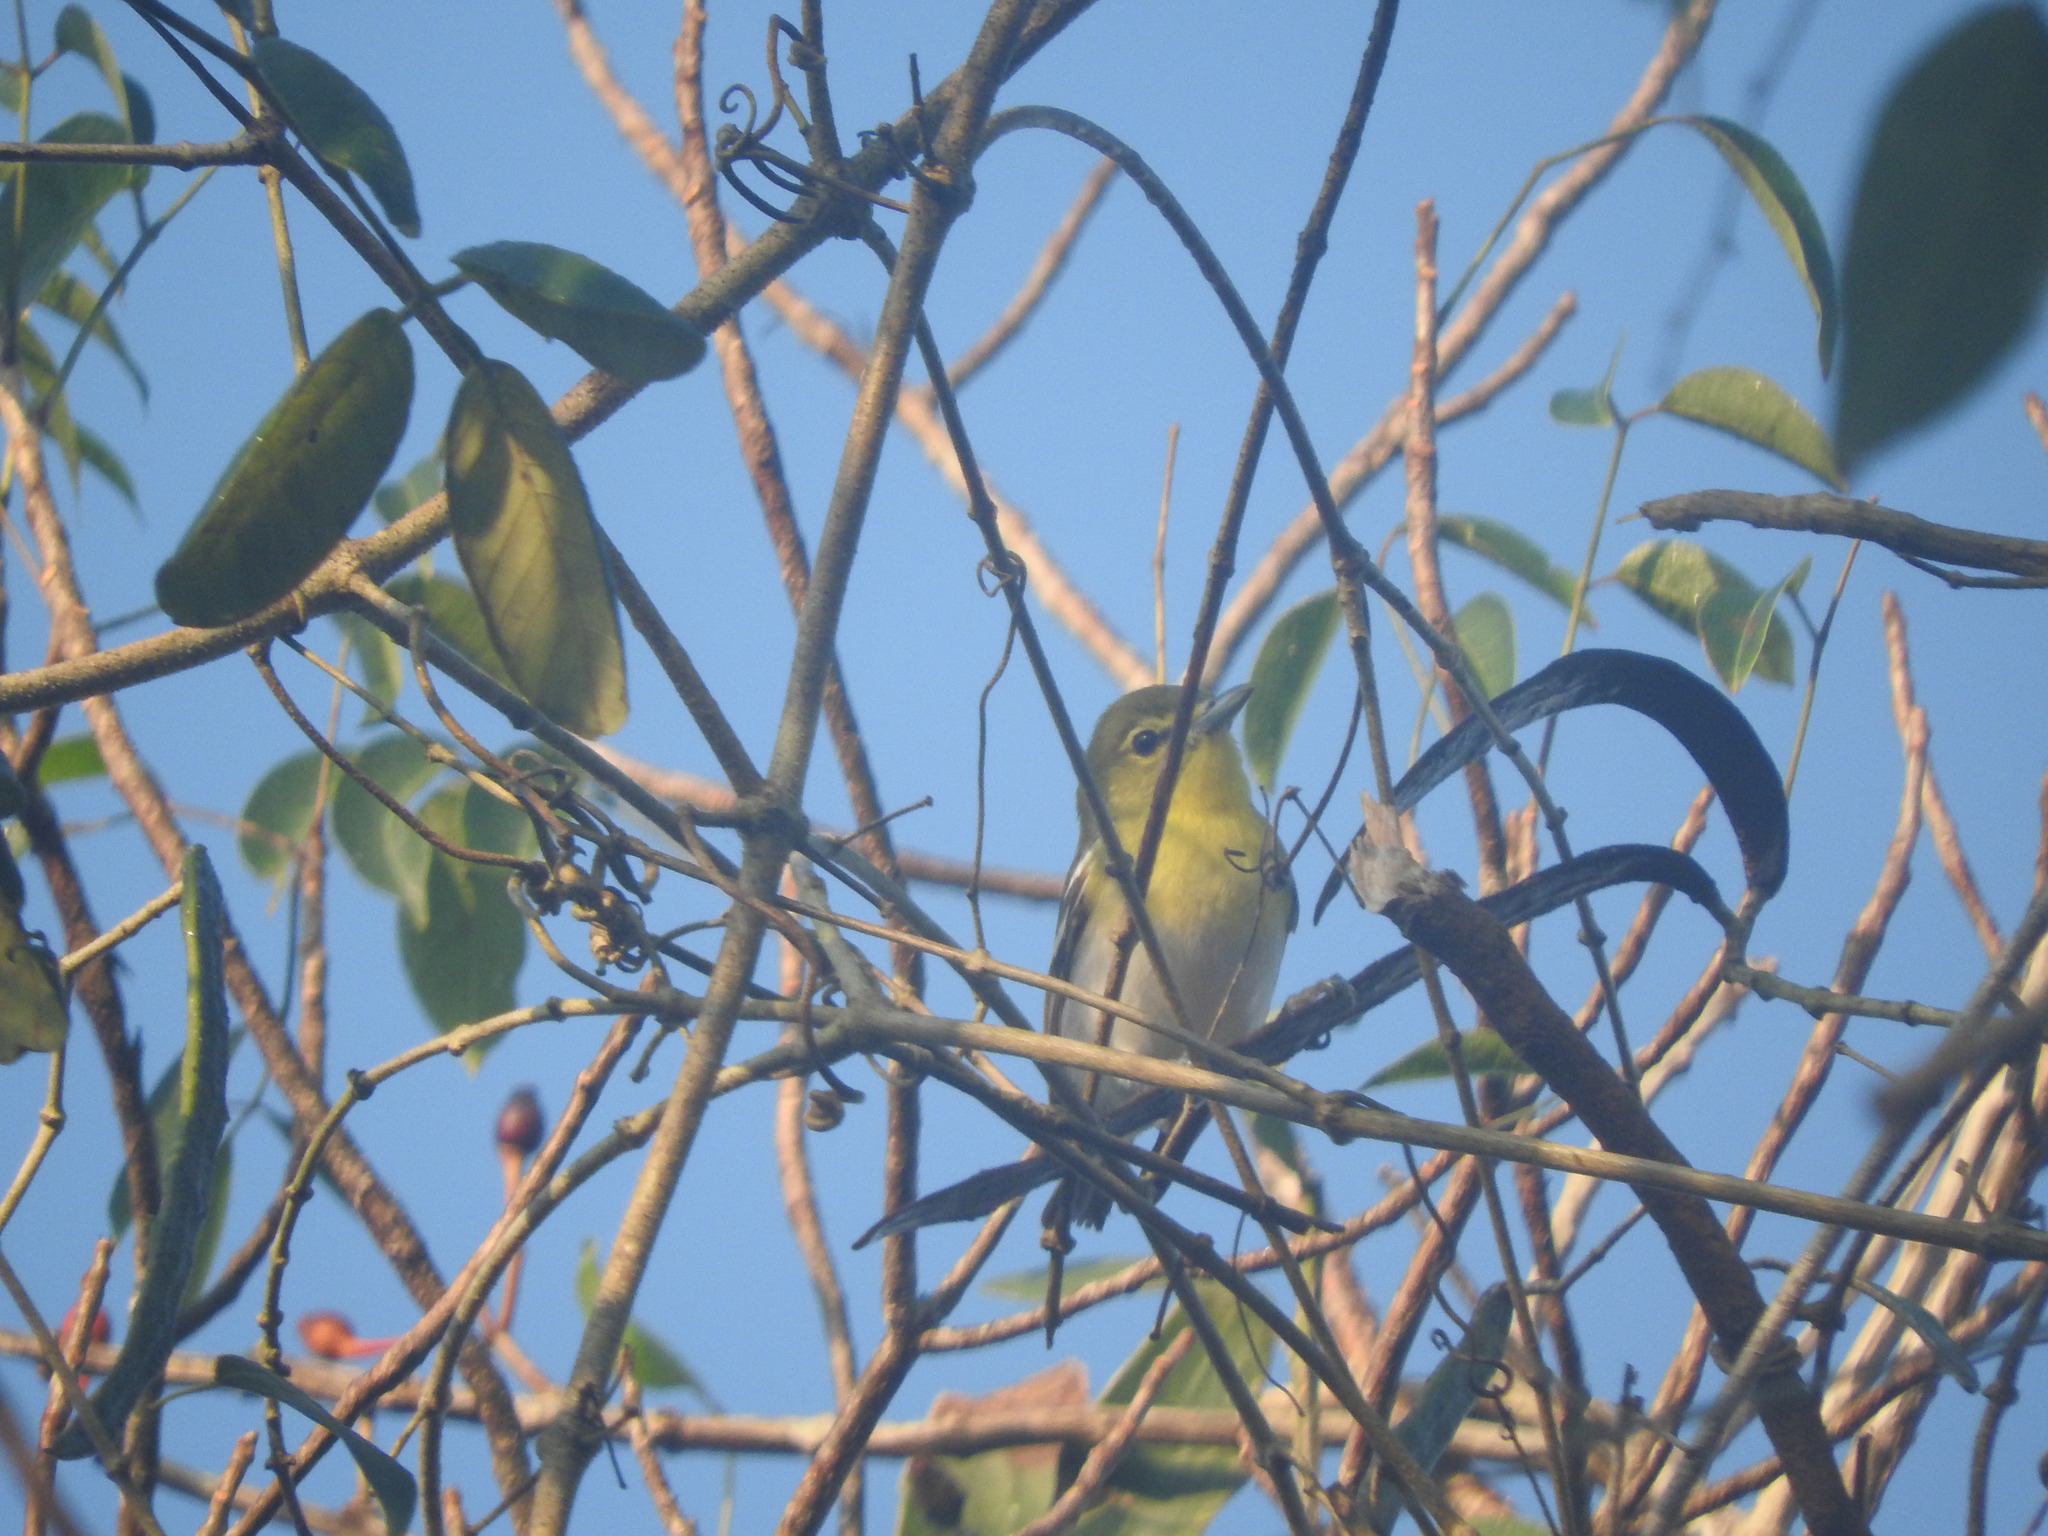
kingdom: Animalia
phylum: Chordata
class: Aves
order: Passeriformes
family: Vireonidae
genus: Vireo
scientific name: Vireo flavifrons
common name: Yellow-throated vireo
